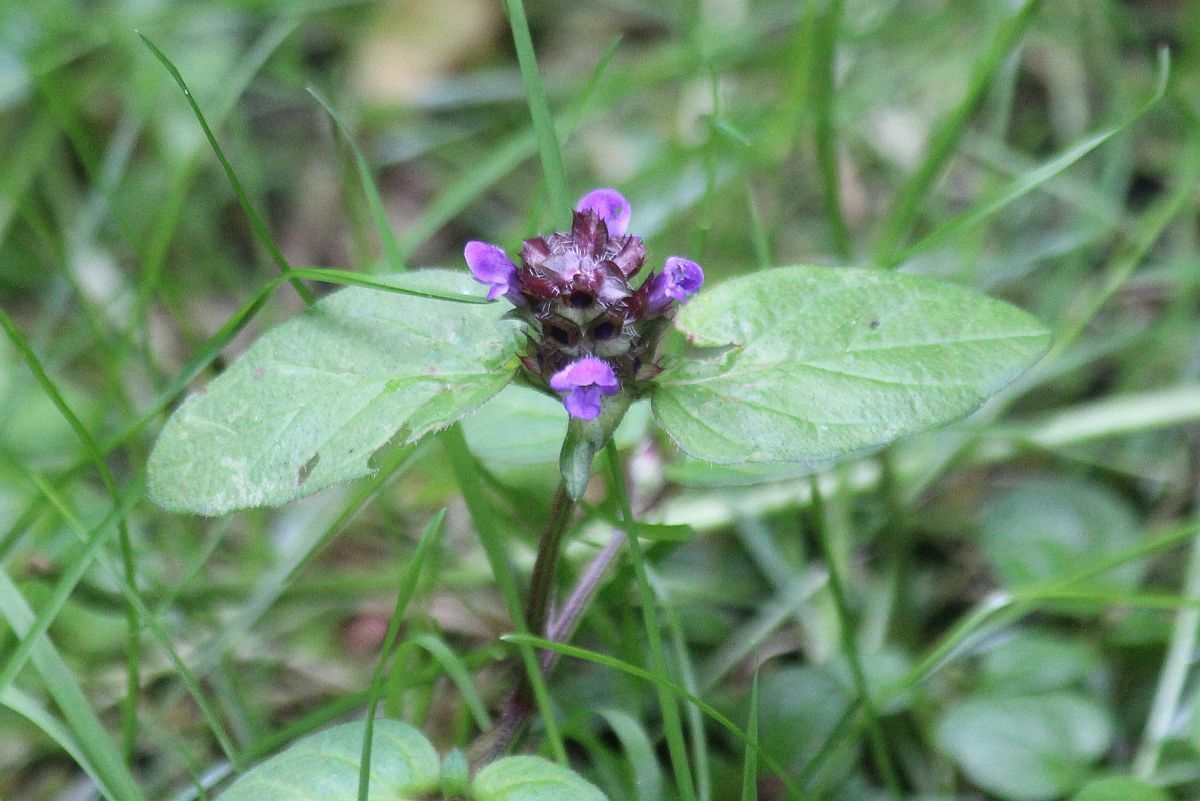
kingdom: Plantae
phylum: Tracheophyta
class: Magnoliopsida
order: Lamiales
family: Lamiaceae
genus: Prunella
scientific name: Prunella vulgaris
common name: Heal-all
